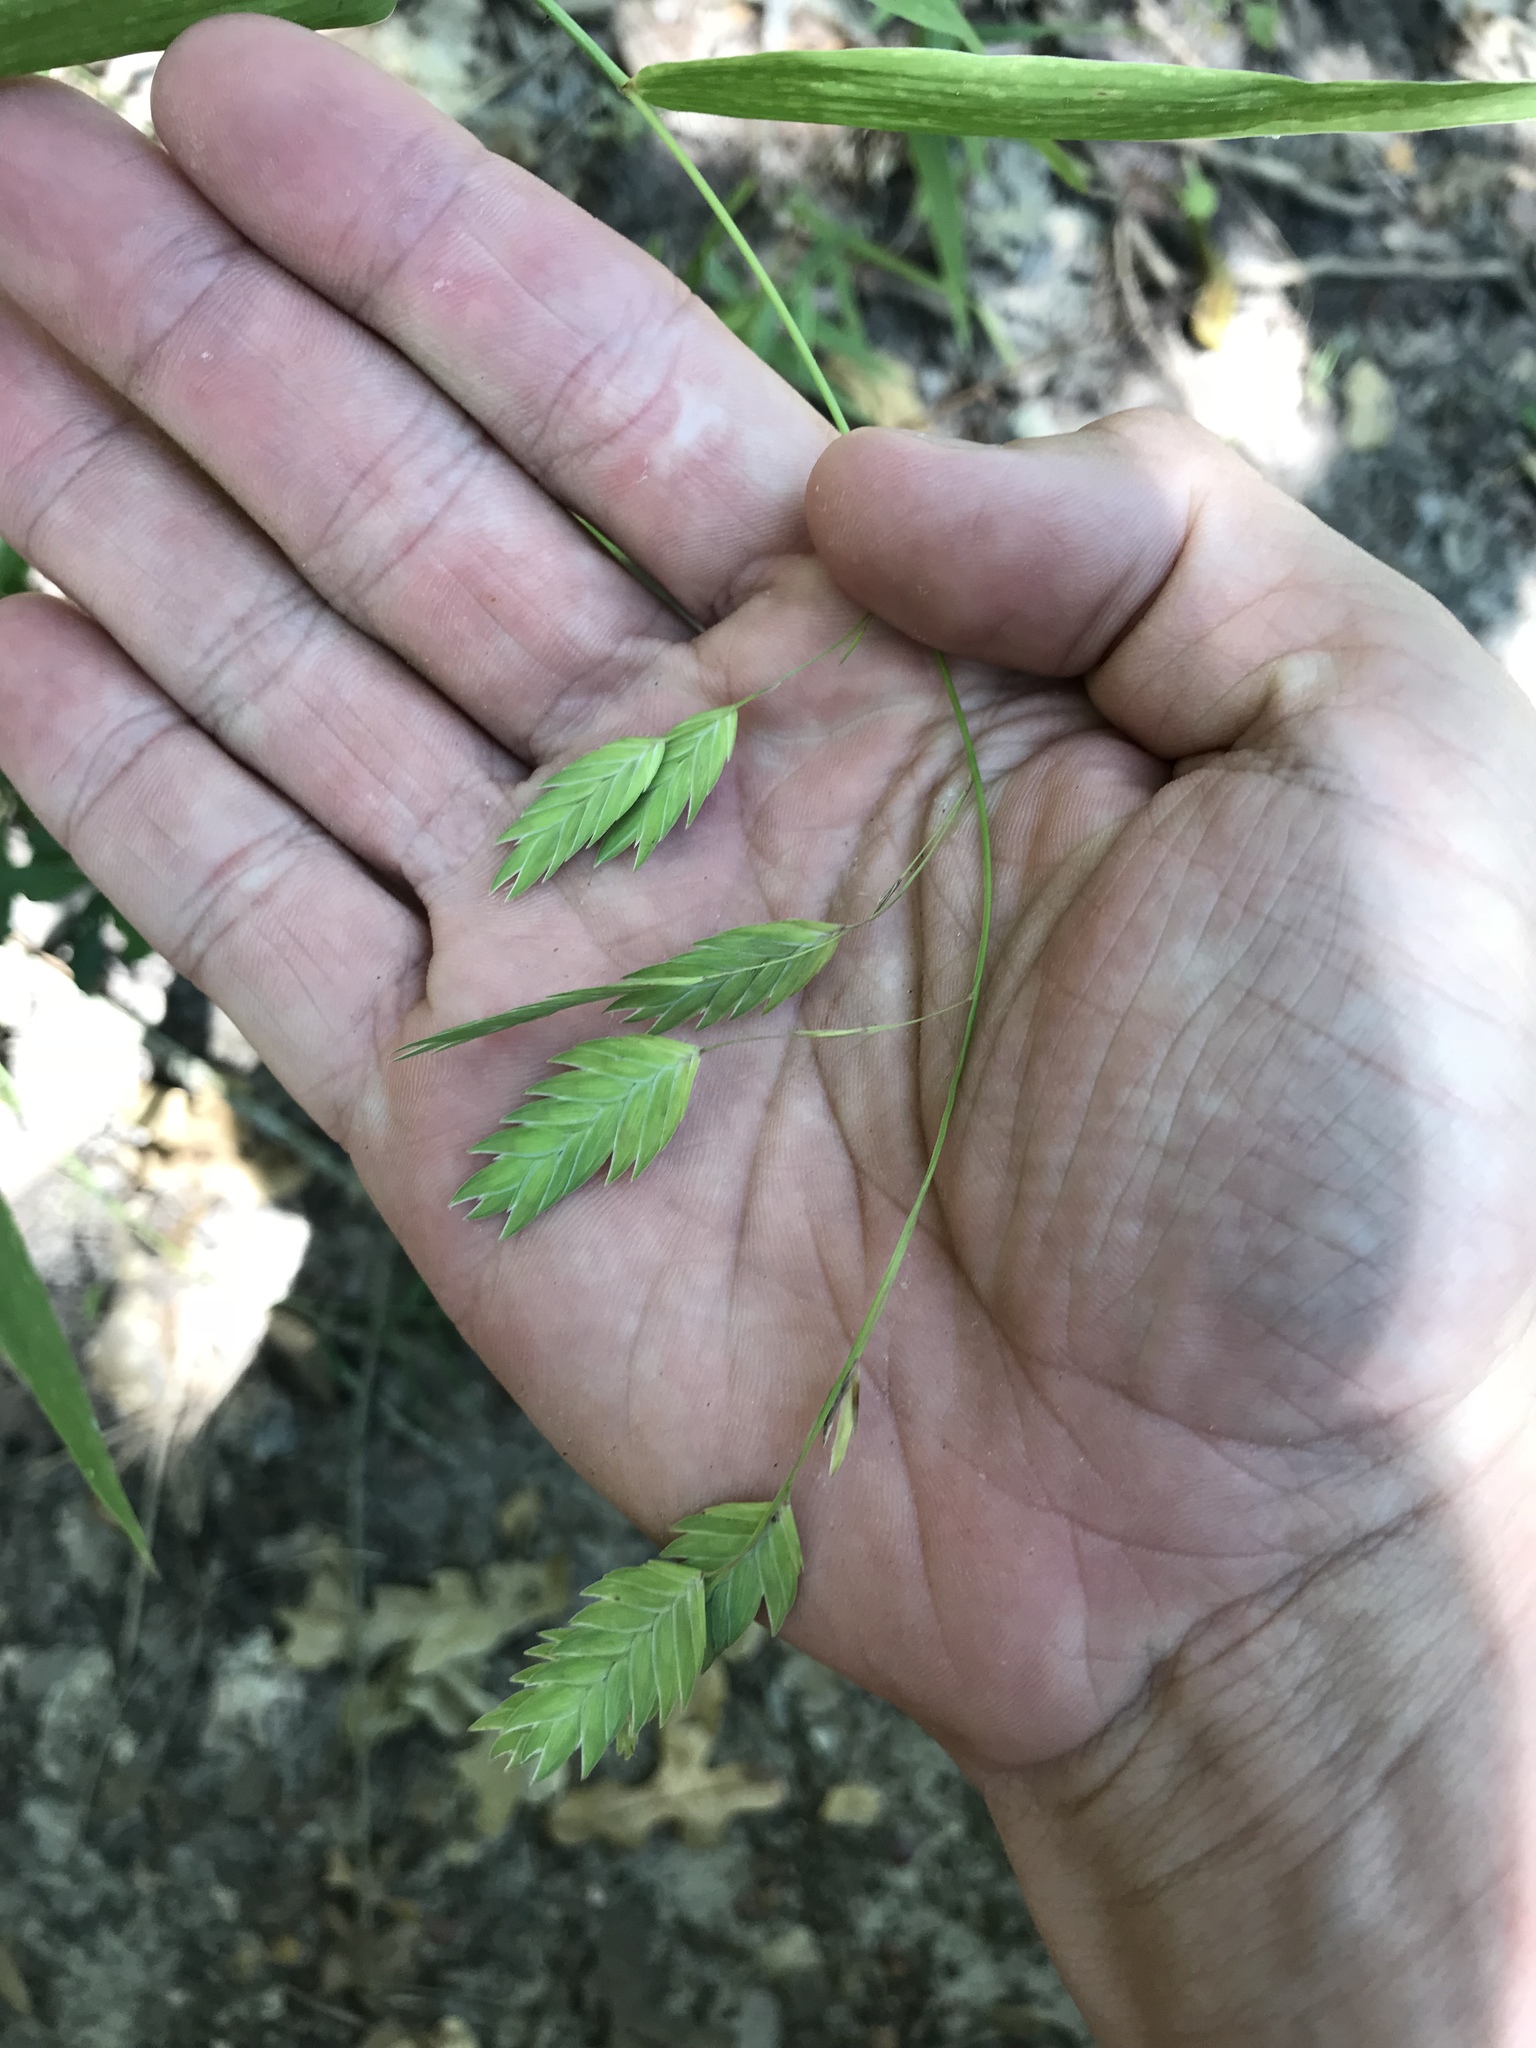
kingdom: Plantae
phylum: Tracheophyta
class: Liliopsida
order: Poales
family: Poaceae
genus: Chasmanthium
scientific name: Chasmanthium latifolium
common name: Broad-leaved chasmanthium
